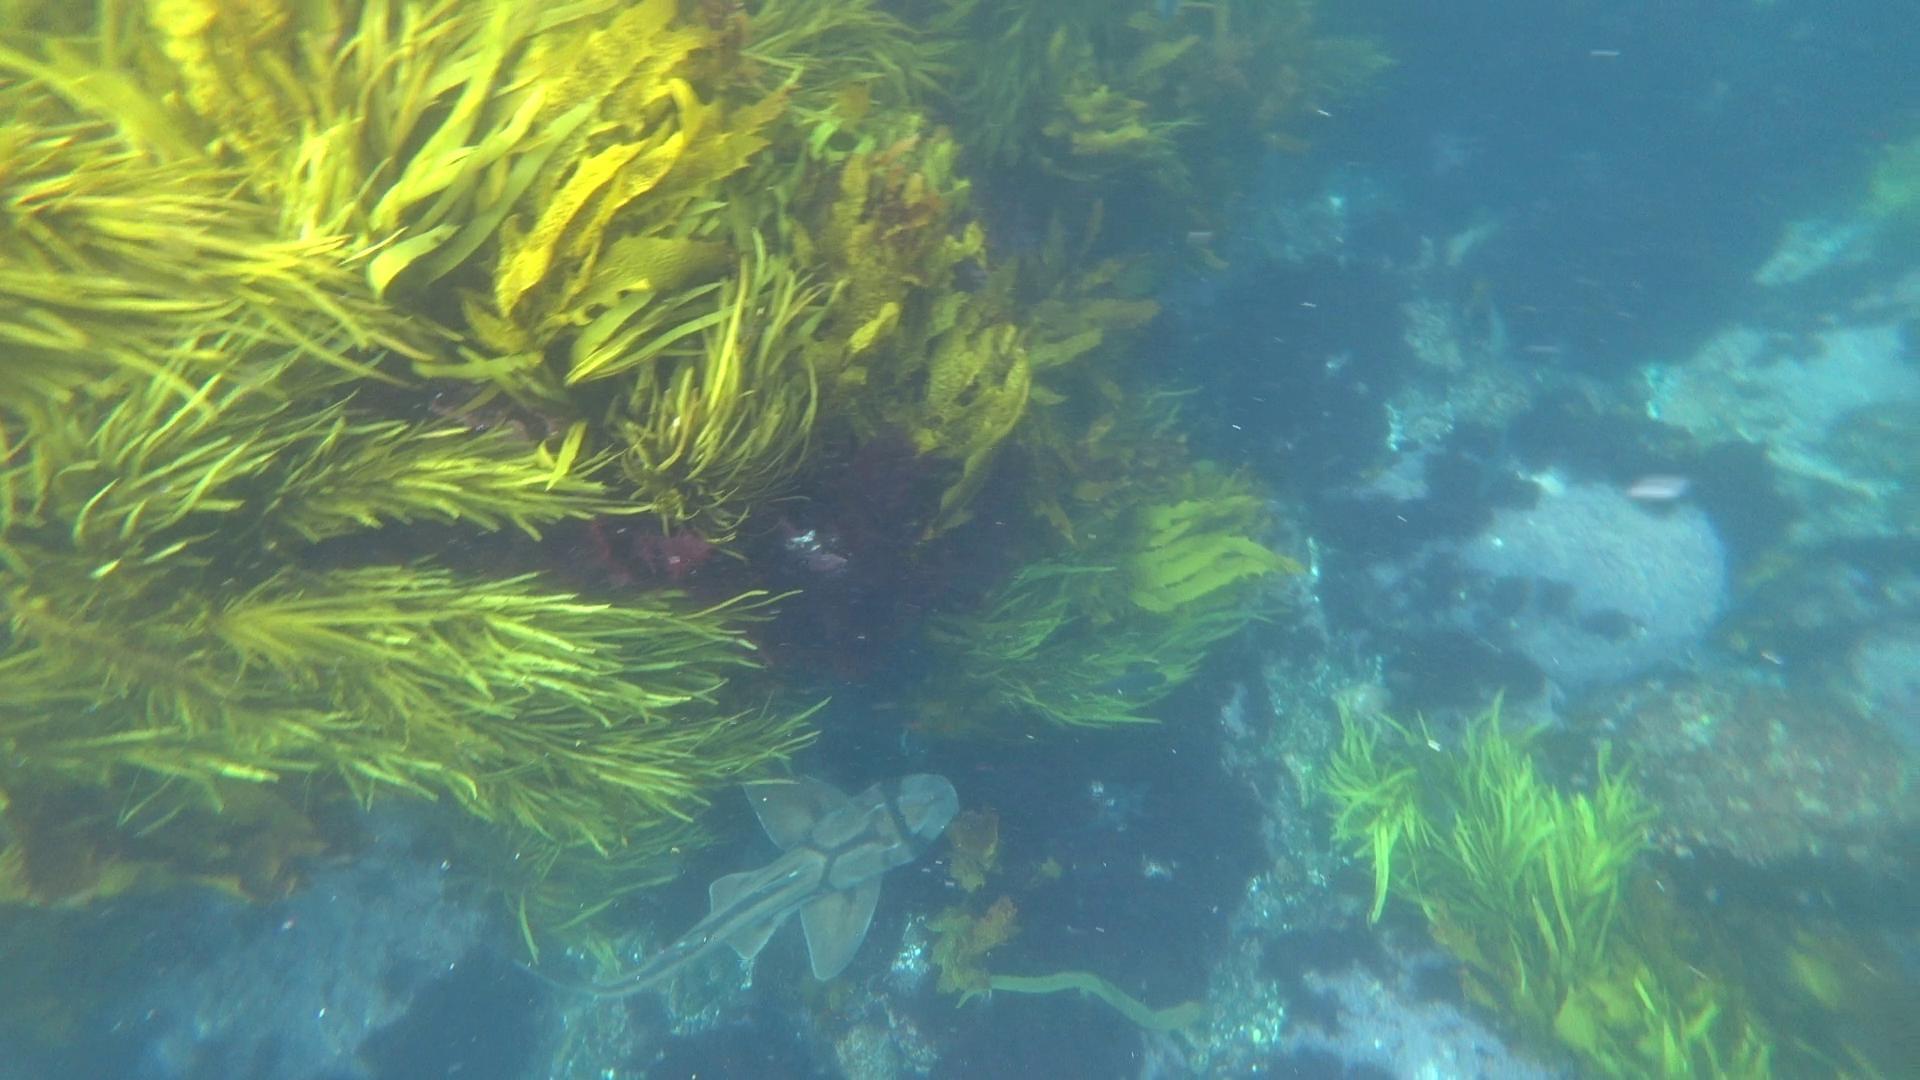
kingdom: Animalia
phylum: Chordata
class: Elasmobranchii
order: Heterodontiformes
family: Heterodontidae
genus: Heterodontus
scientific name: Heterodontus portusjacksoni
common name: Port jackson shark
